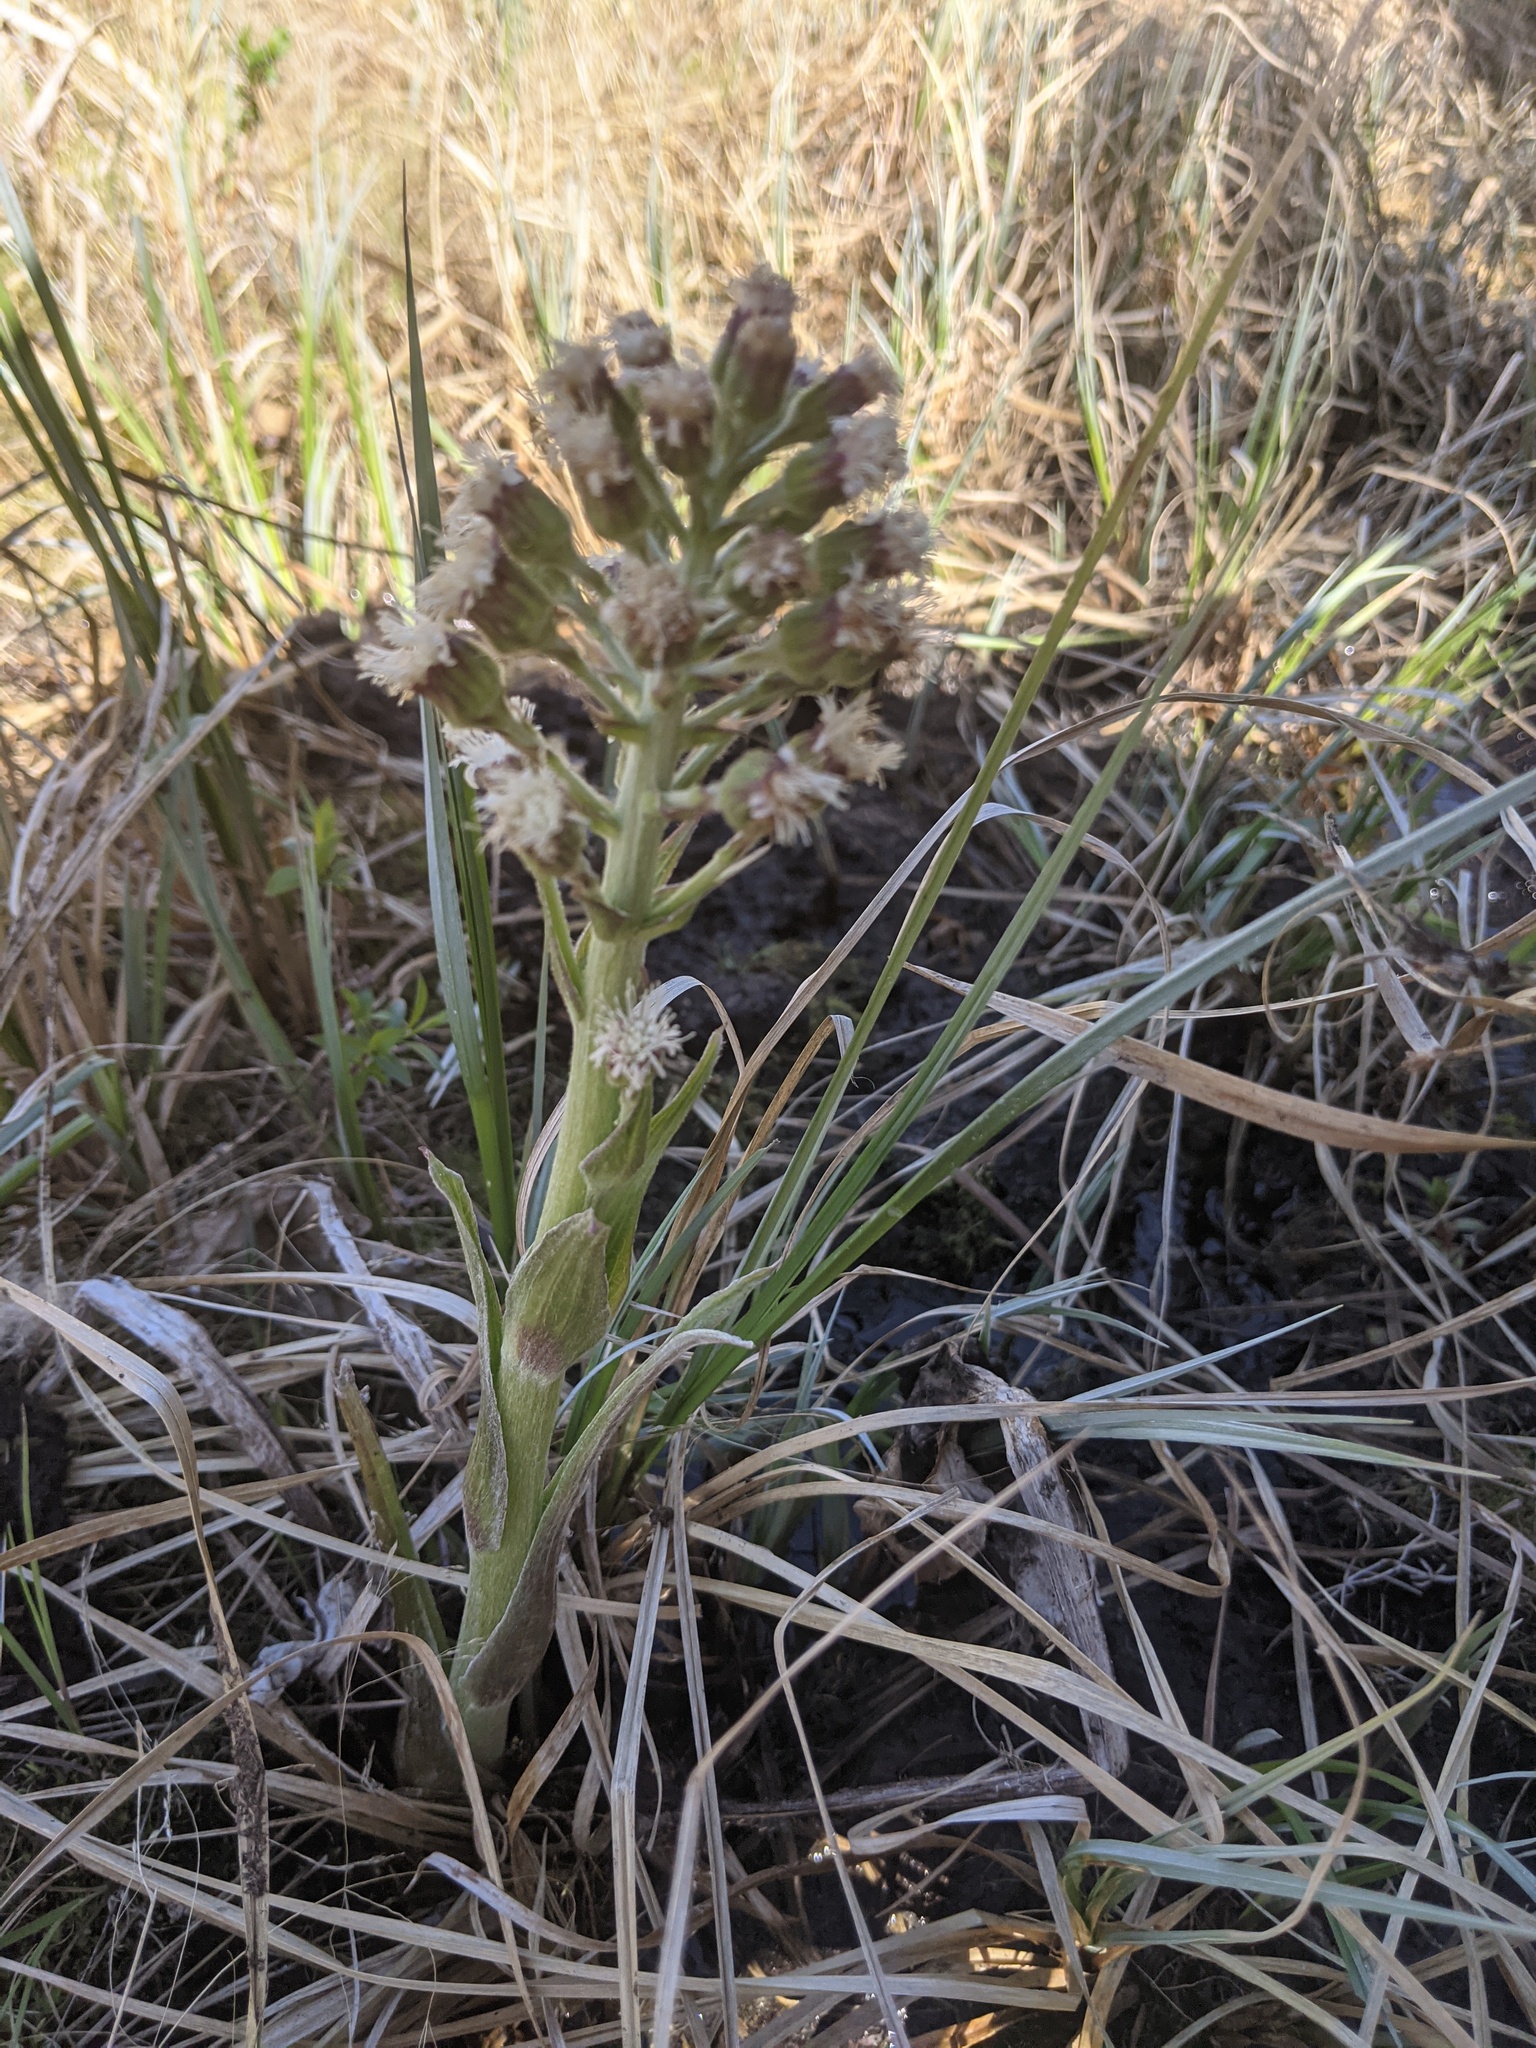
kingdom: Plantae
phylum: Tracheophyta
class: Magnoliopsida
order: Asterales
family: Asteraceae
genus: Petasites
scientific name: Petasites frigidus
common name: Arctic butterbur
